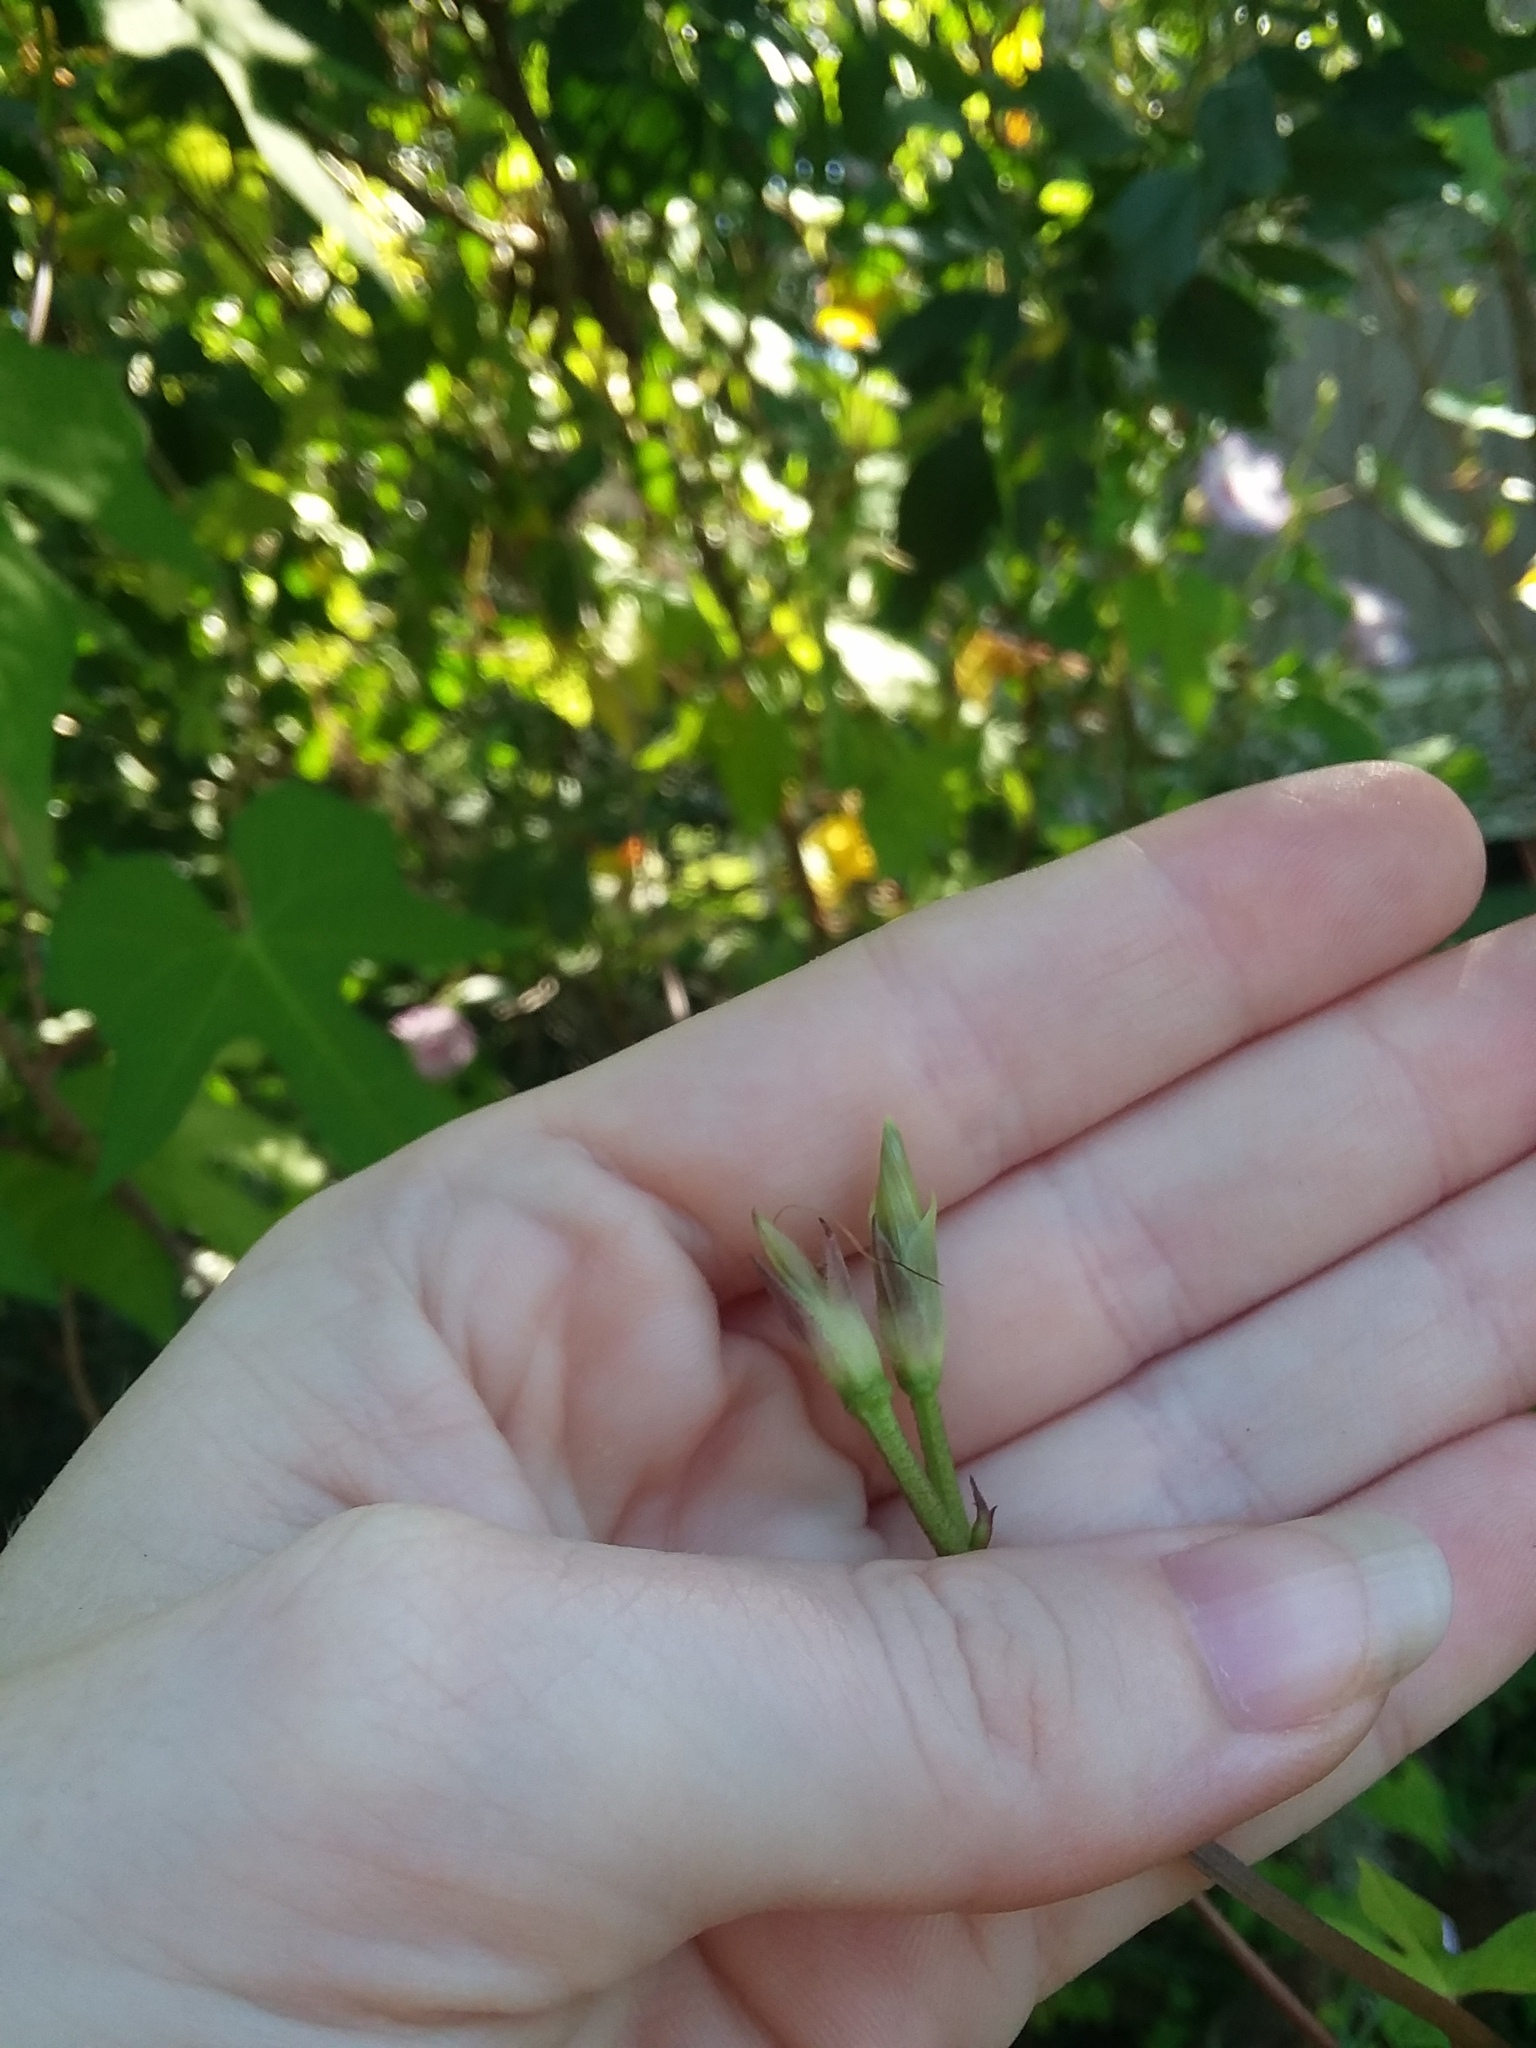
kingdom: Plantae
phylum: Tracheophyta
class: Magnoliopsida
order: Solanales
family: Convolvulaceae
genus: Ipomoea
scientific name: Ipomoea cordatotriloba
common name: Cotton morning glory
